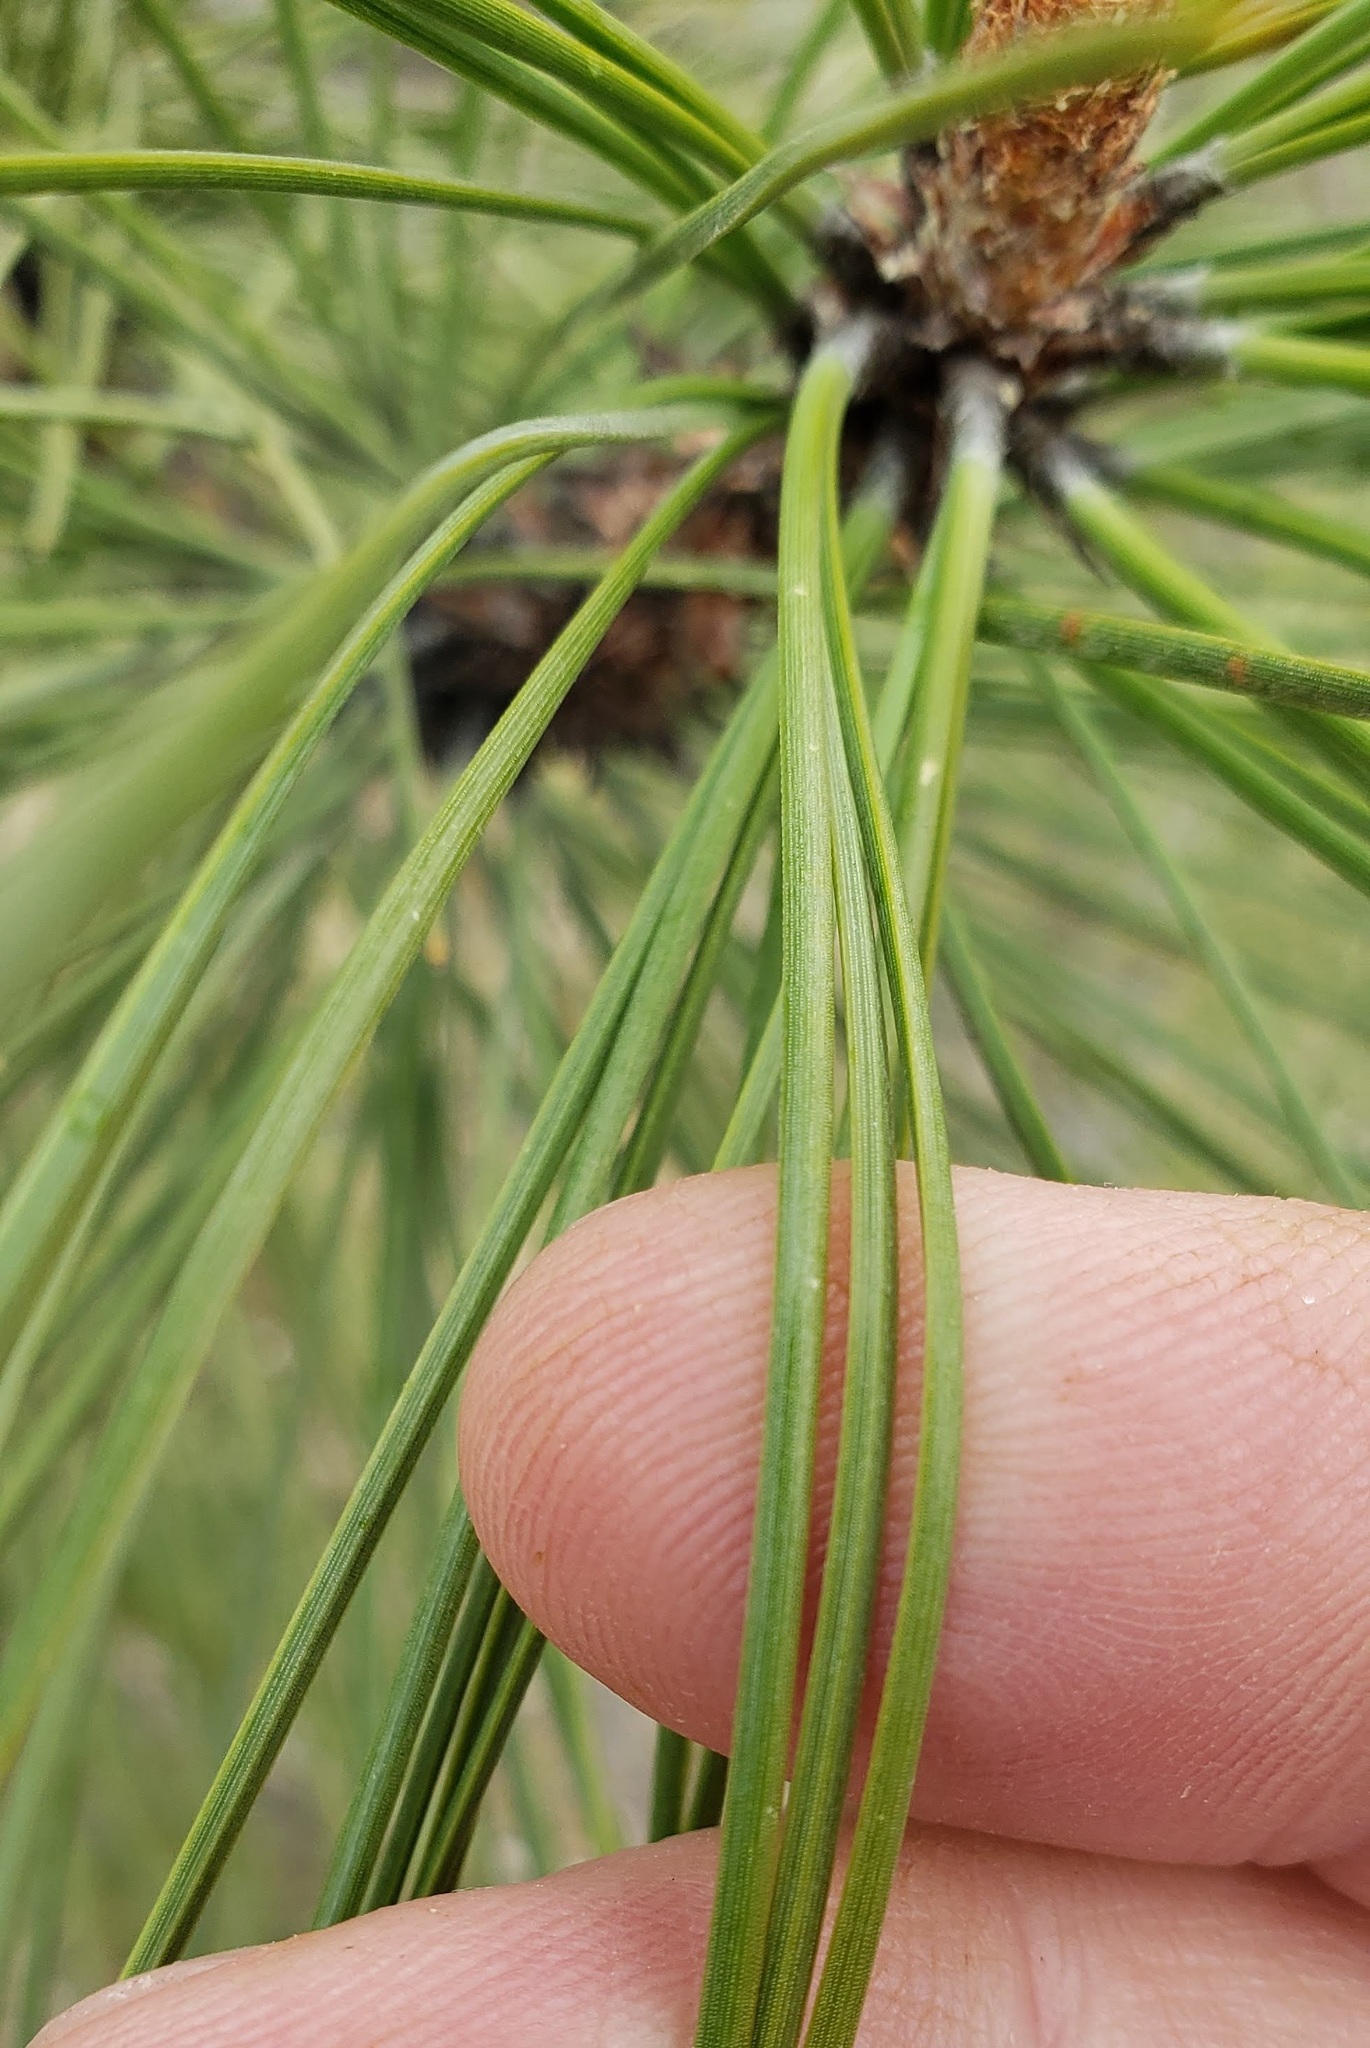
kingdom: Plantae
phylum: Tracheophyta
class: Pinopsida
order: Pinales
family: Pinaceae
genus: Pinus
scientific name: Pinus ponderosa
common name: Western yellow-pine
